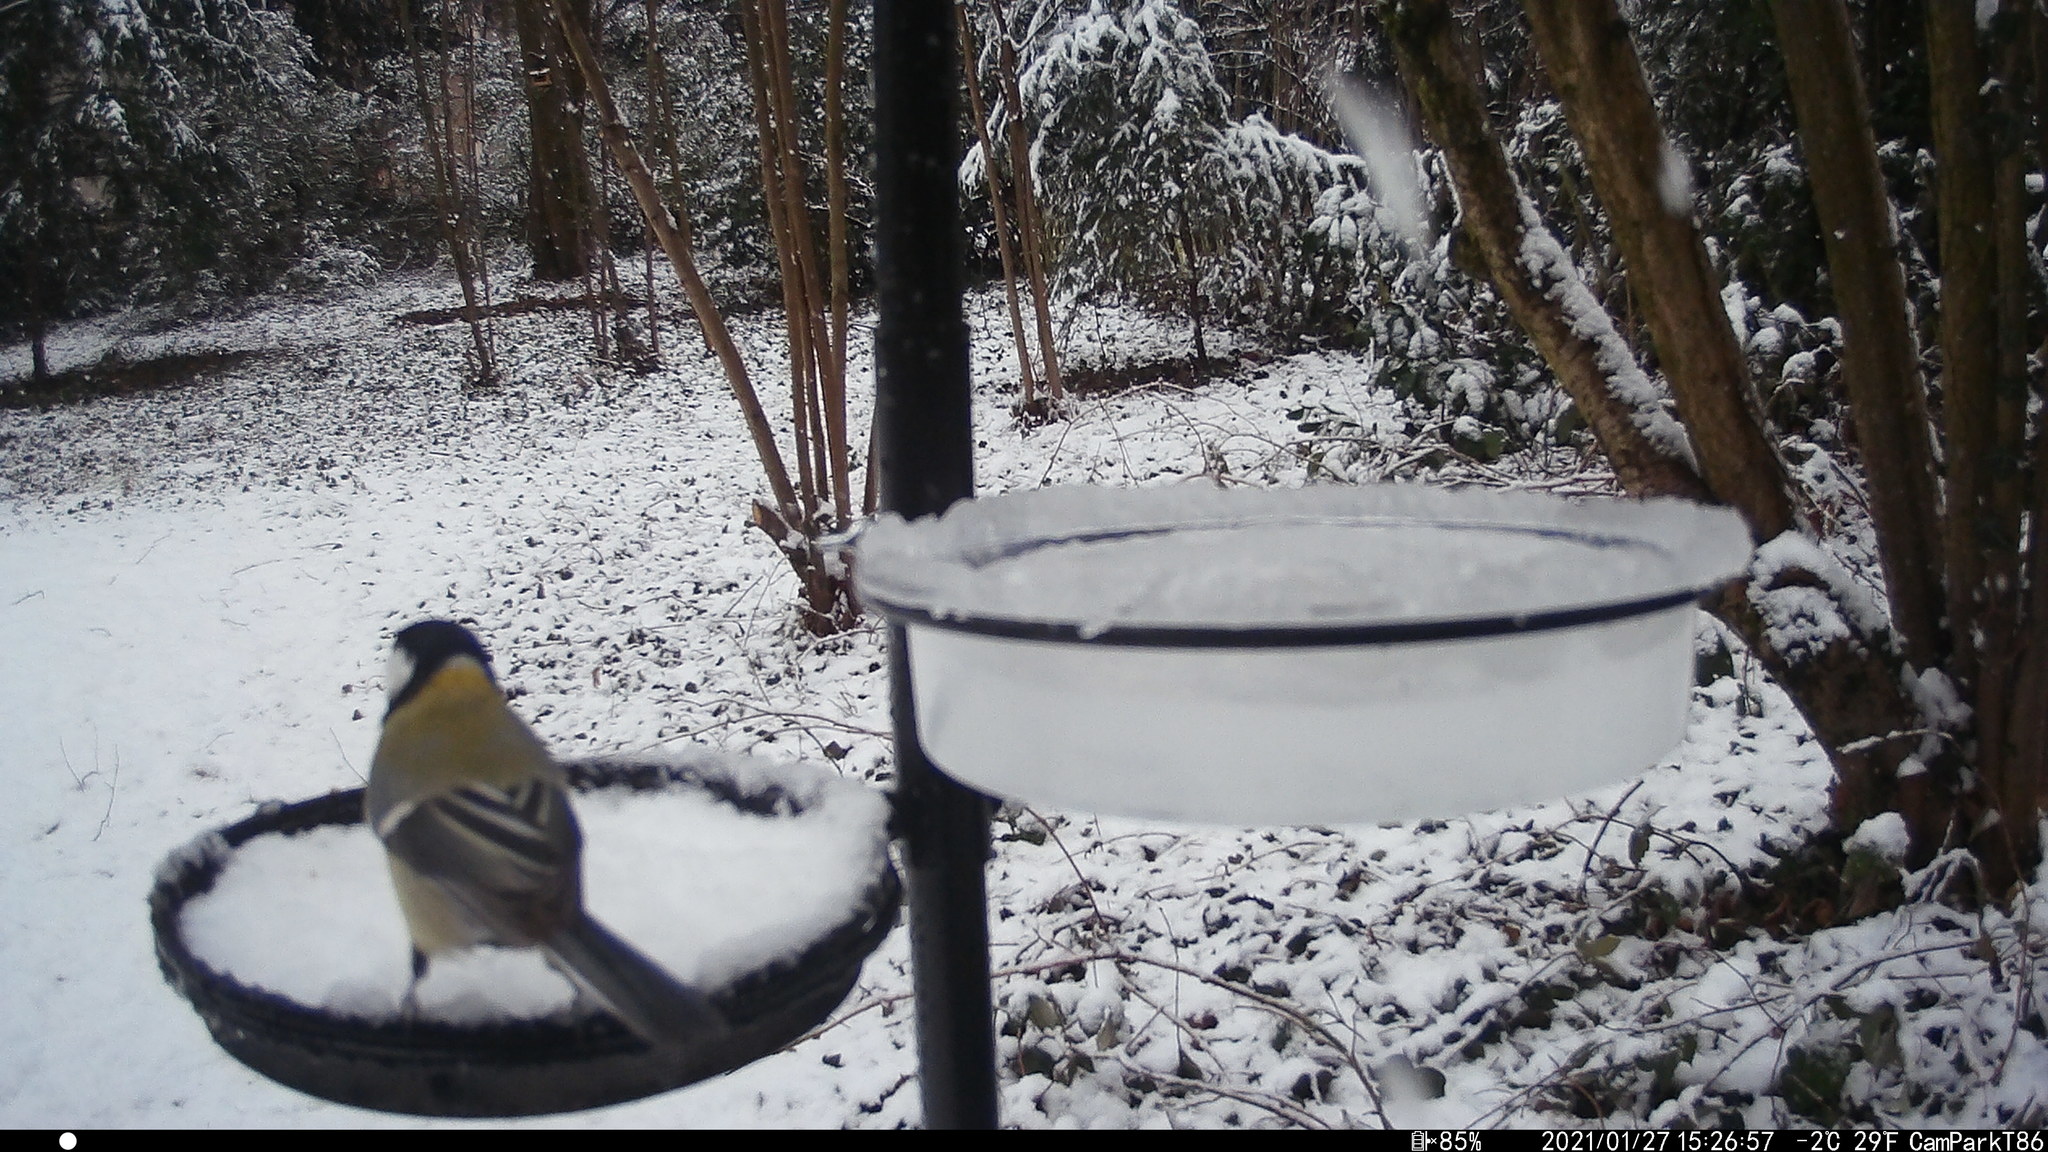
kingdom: Animalia
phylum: Chordata
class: Aves
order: Passeriformes
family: Paridae
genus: Parus
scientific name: Parus major
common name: Great tit
